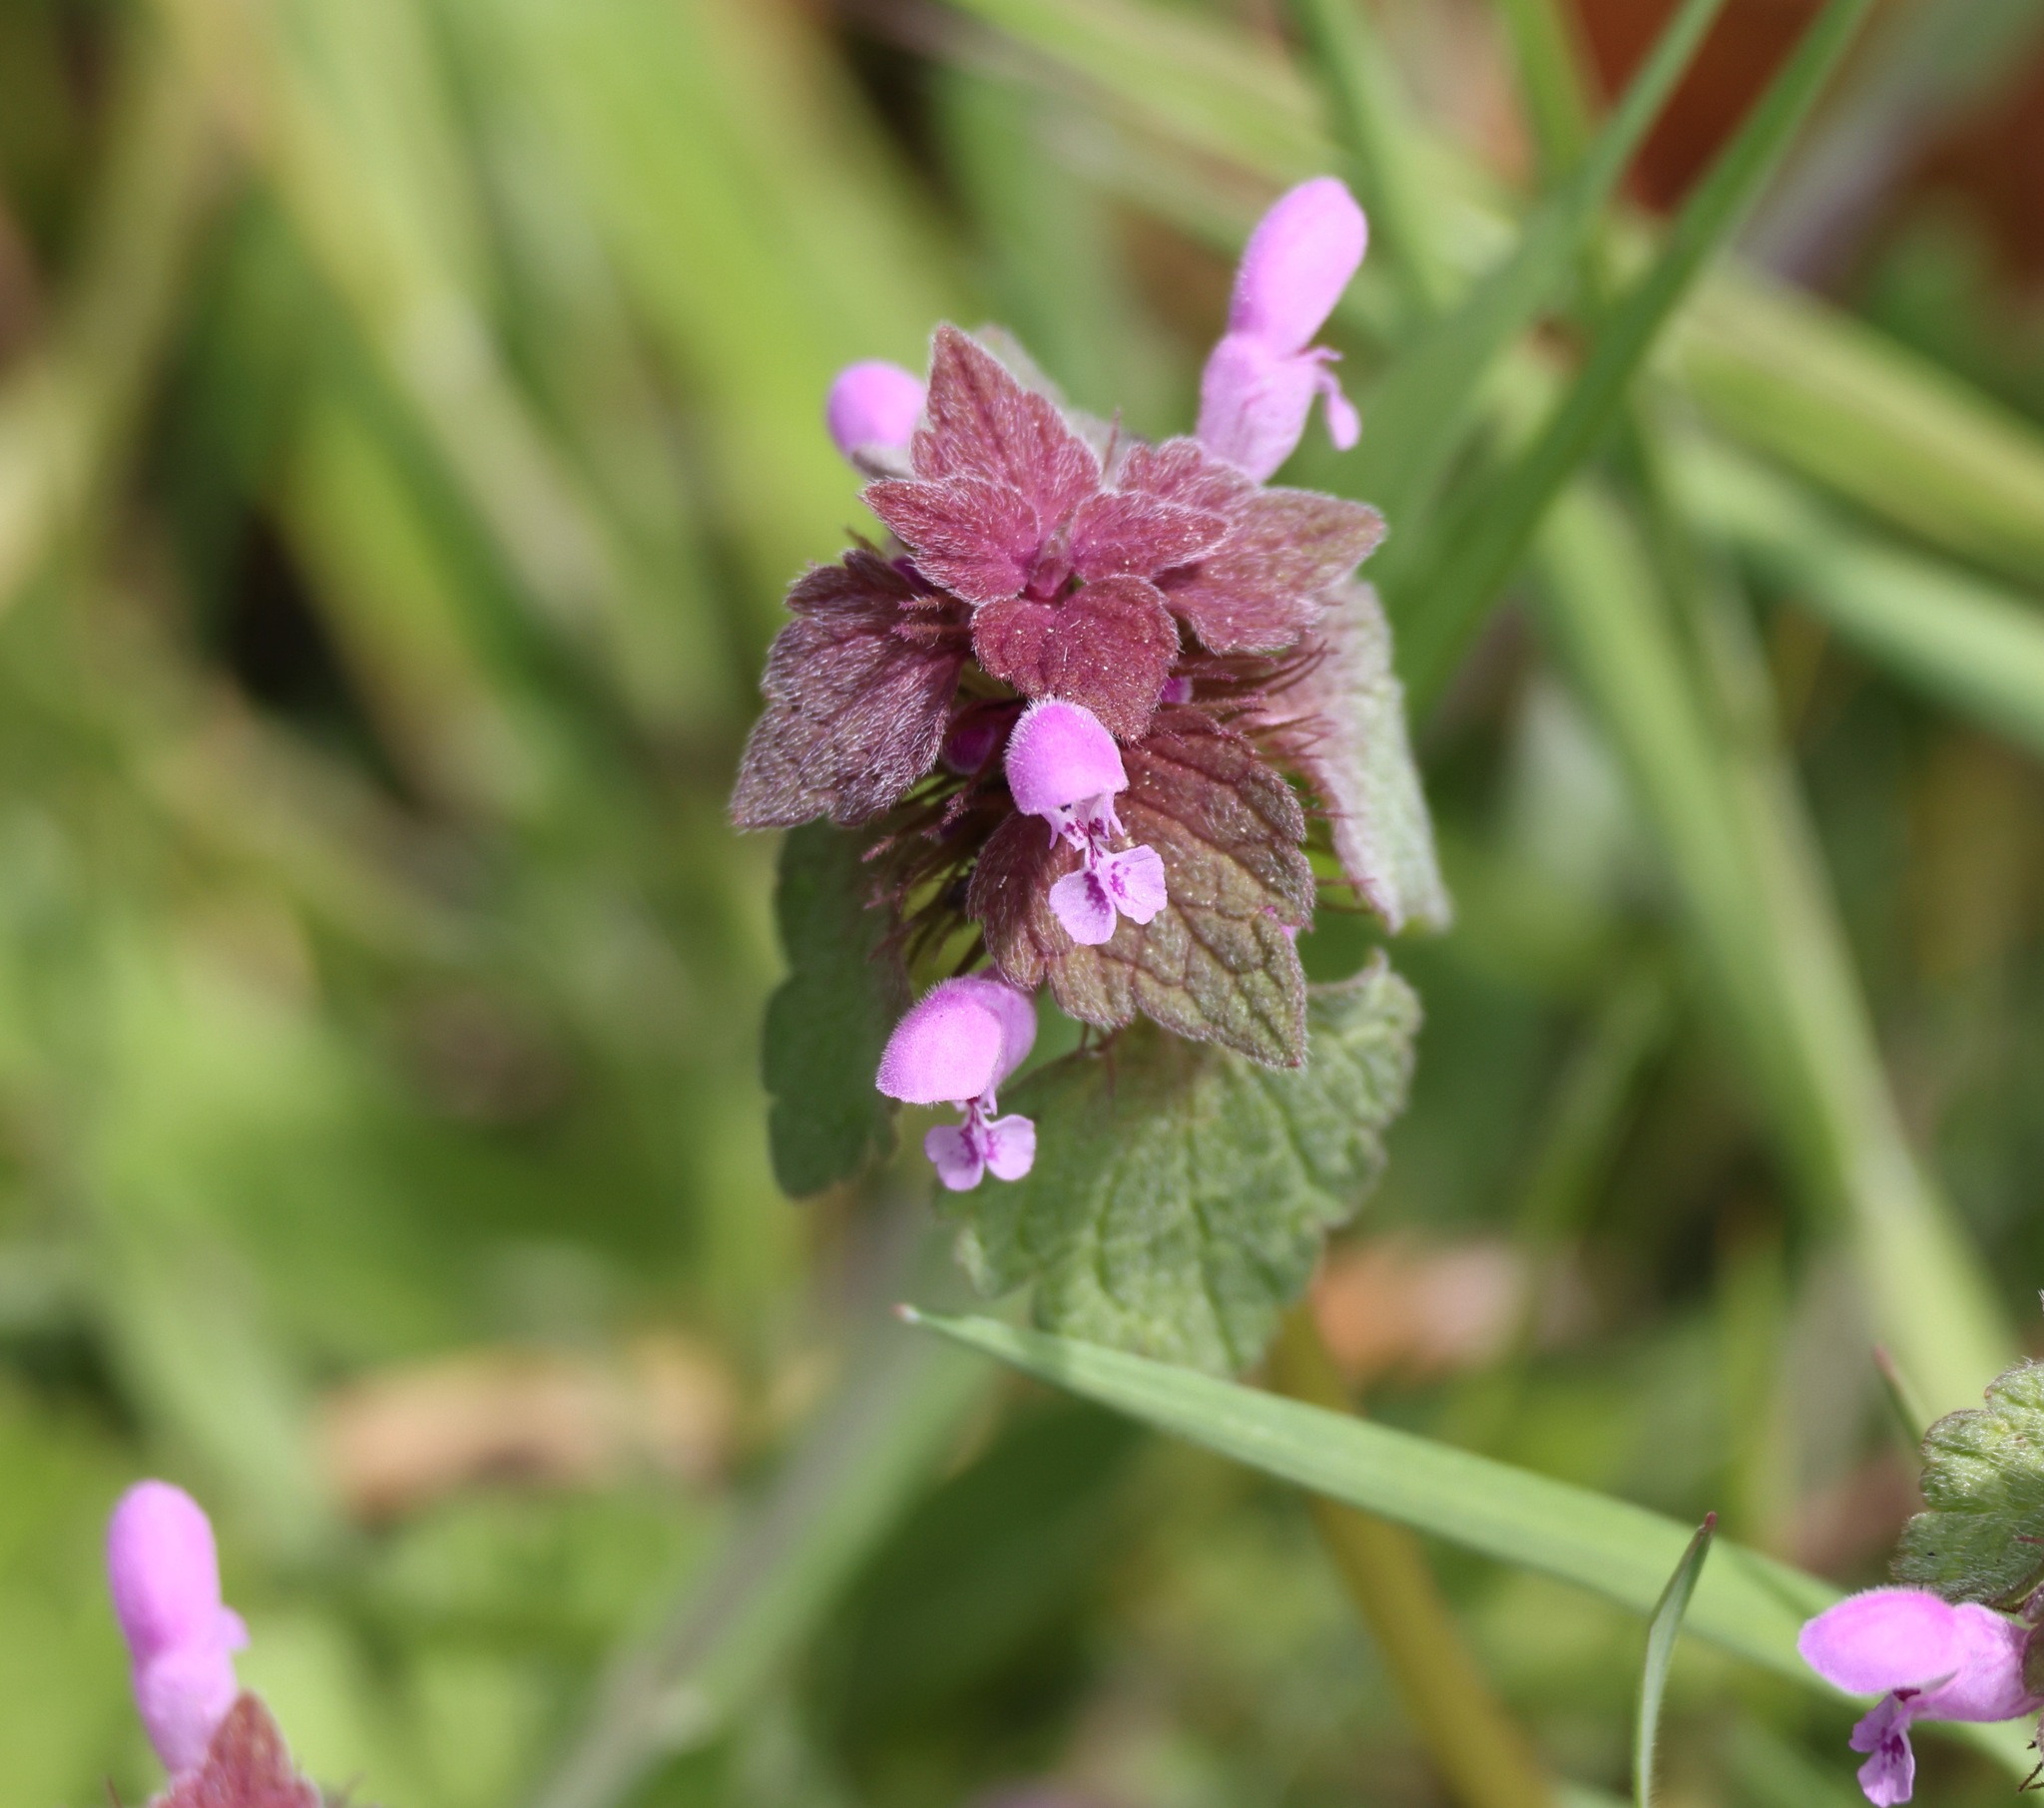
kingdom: Plantae
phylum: Tracheophyta
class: Magnoliopsida
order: Lamiales
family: Lamiaceae
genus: Lamium
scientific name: Lamium purpureum
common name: Red dead-nettle
